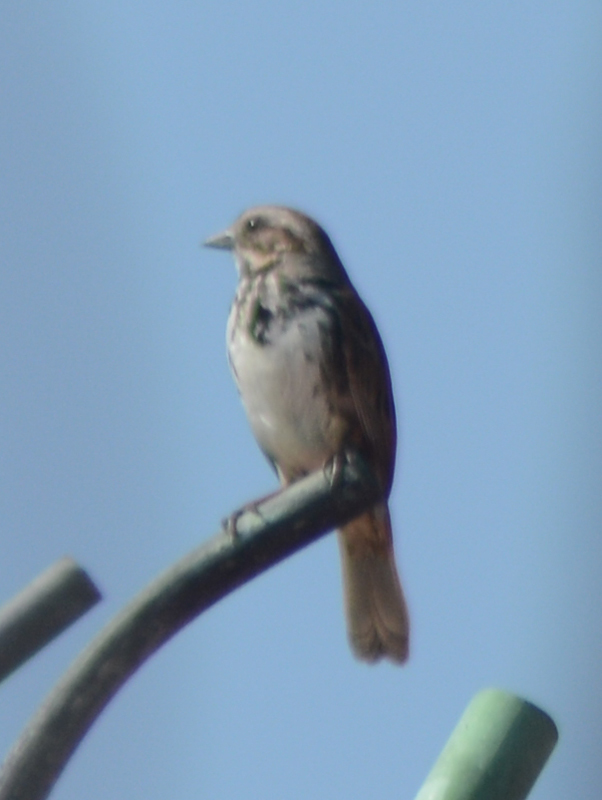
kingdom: Animalia
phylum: Chordata
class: Aves
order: Passeriformes
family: Passerellidae
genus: Melospiza
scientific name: Melospiza melodia
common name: Song sparrow
